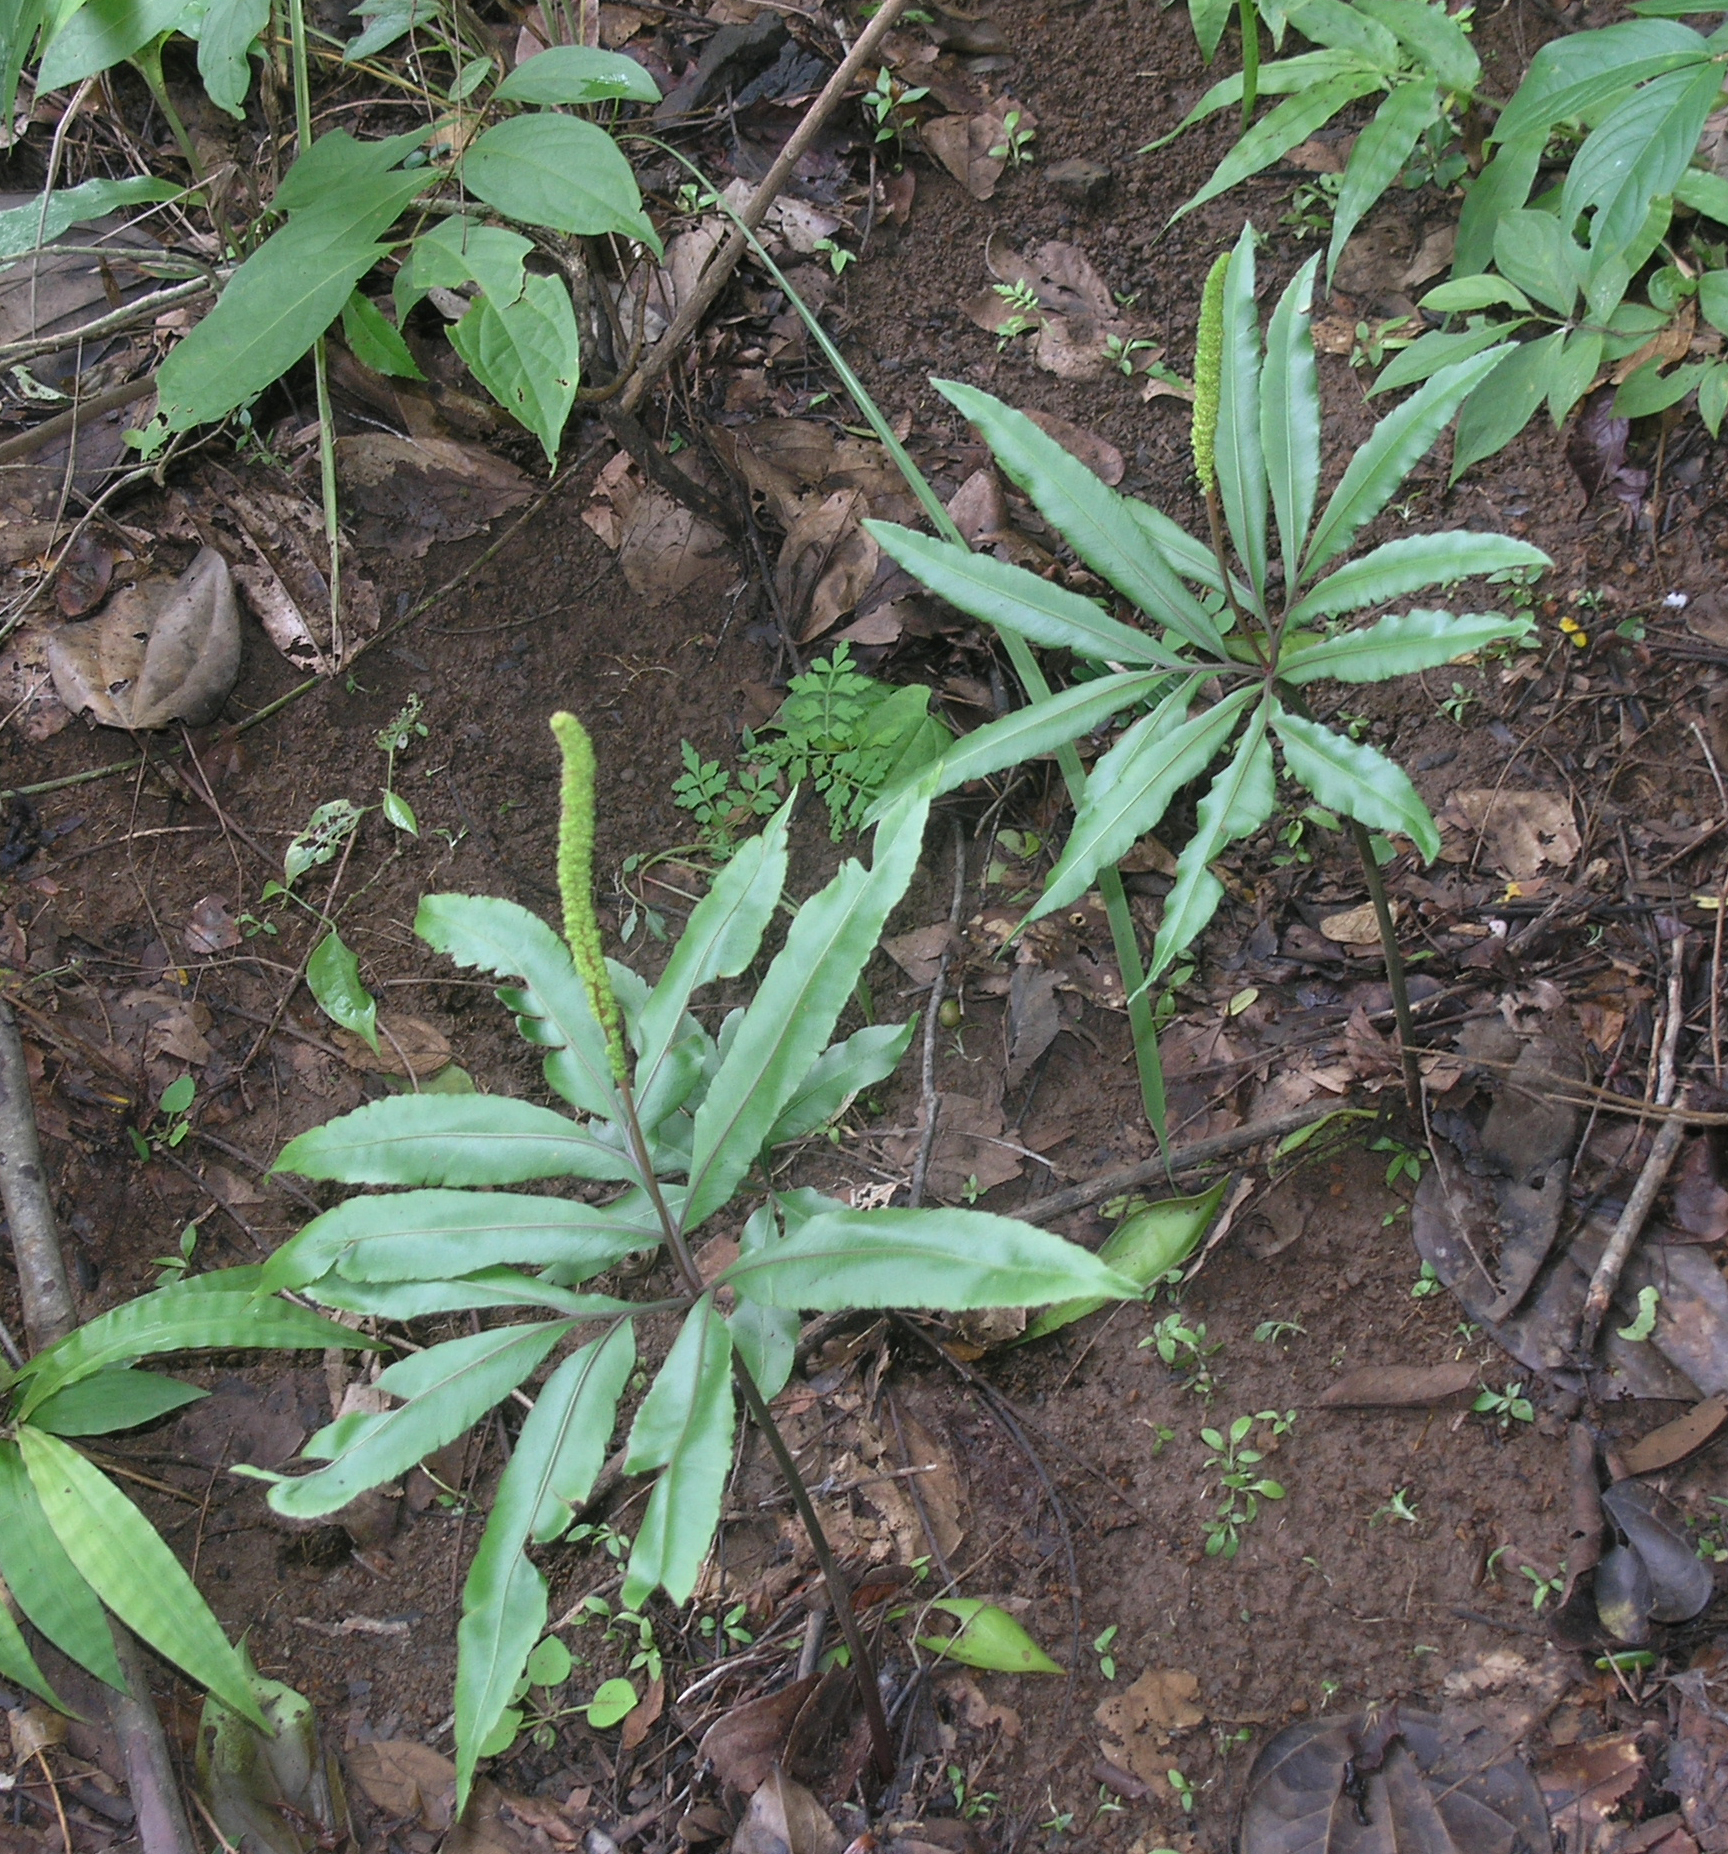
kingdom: Plantae
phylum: Tracheophyta
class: Polypodiopsida
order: Ophioglossales
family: Ophioglossaceae
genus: Helminthostachys
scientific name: Helminthostachys zeylanica
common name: Flowering fern
